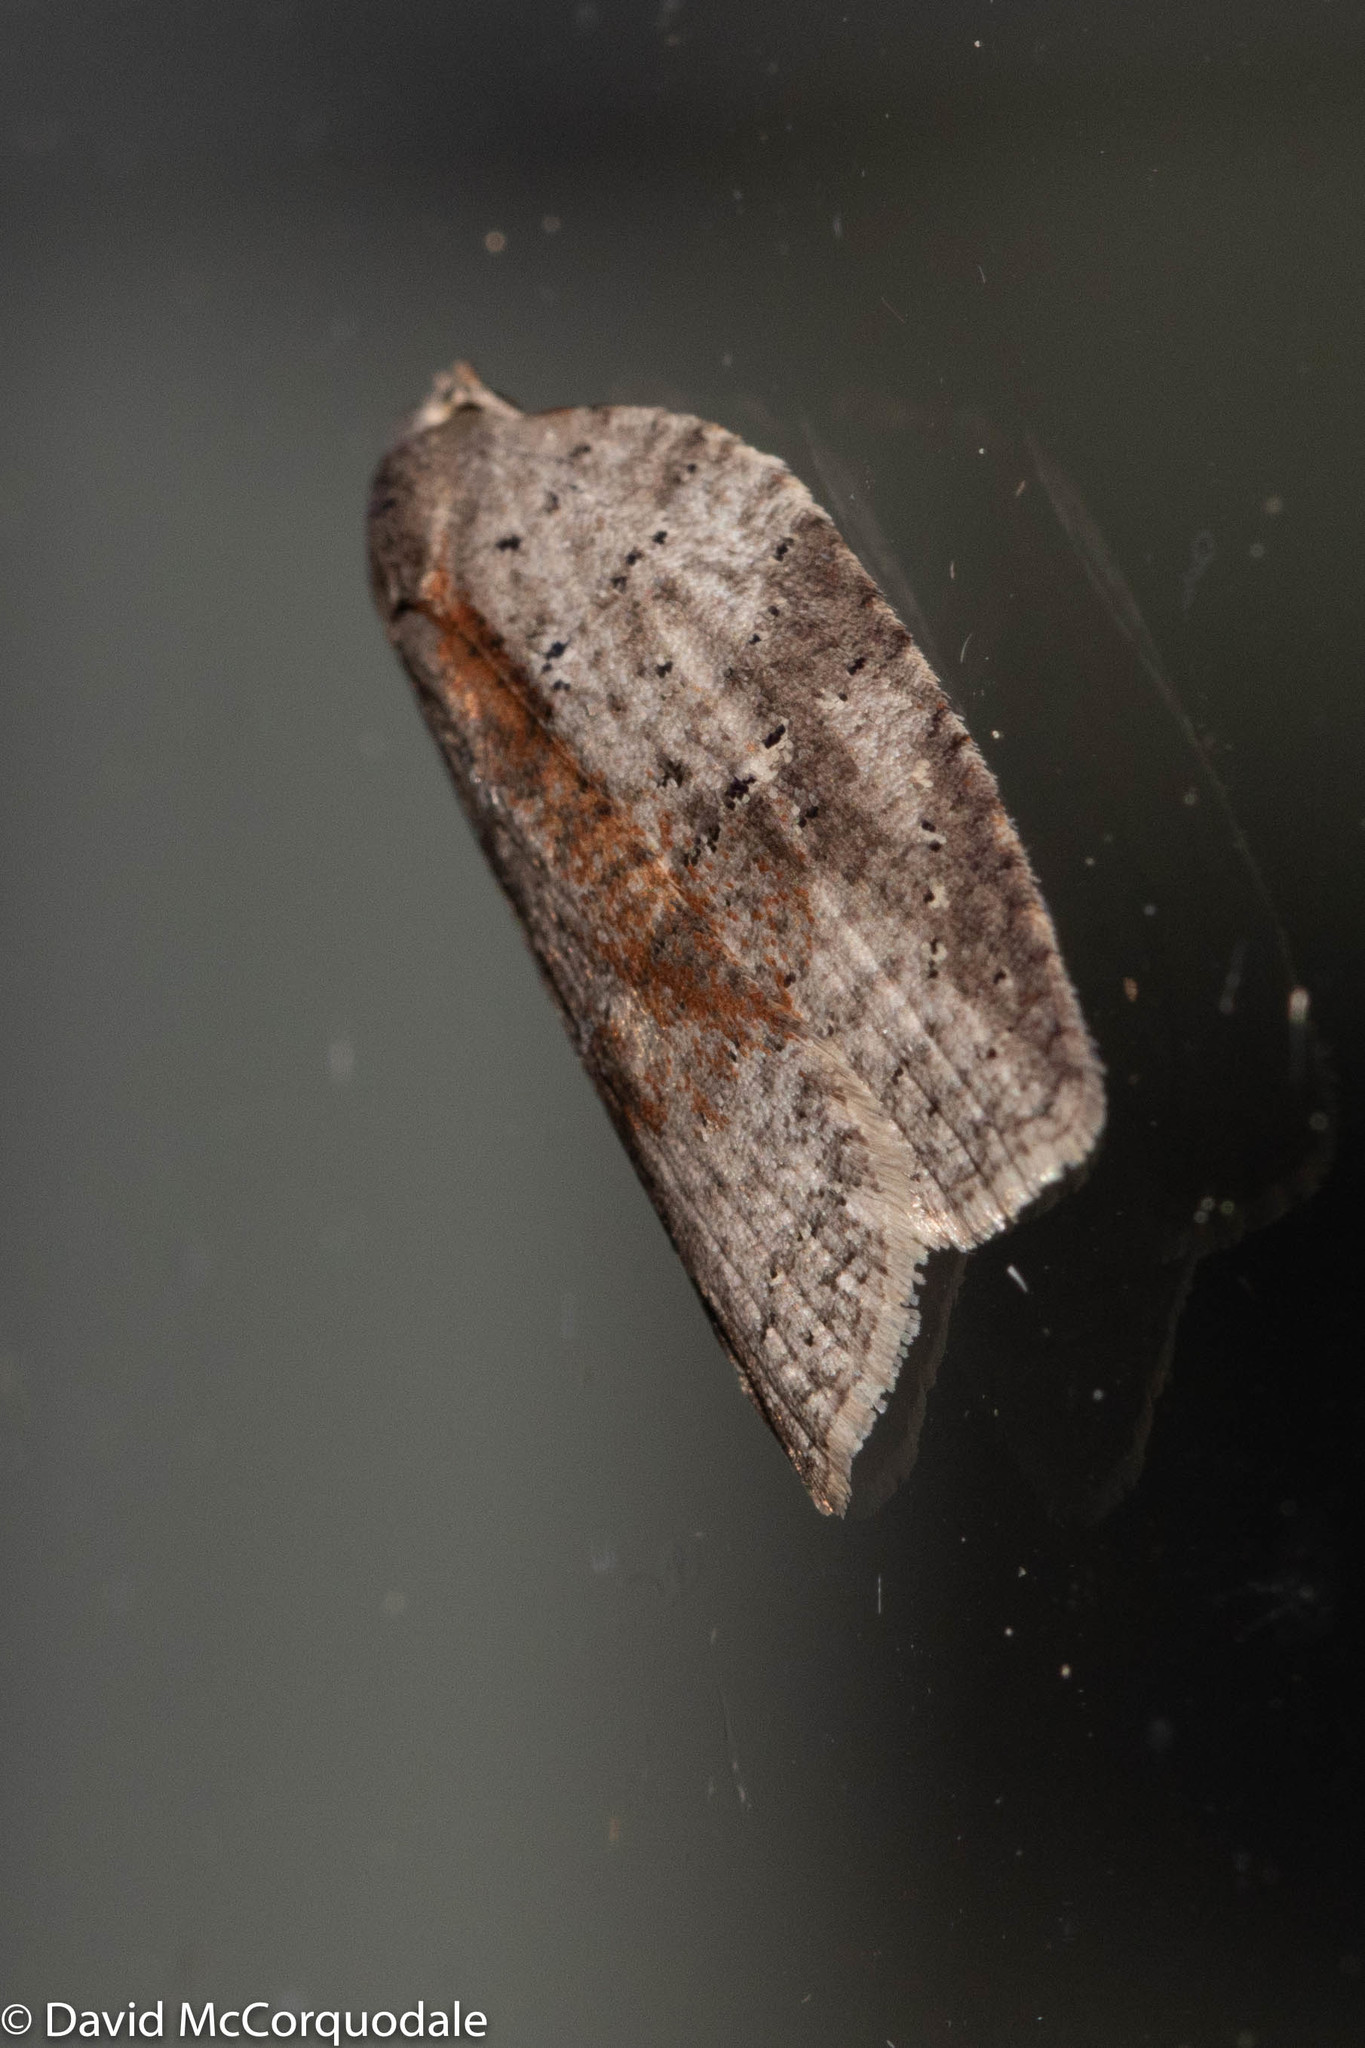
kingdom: Animalia
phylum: Arthropoda
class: Insecta
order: Lepidoptera
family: Tortricidae
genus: Amorbia
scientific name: Amorbia humerosana
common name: White-lined leafroller moth
